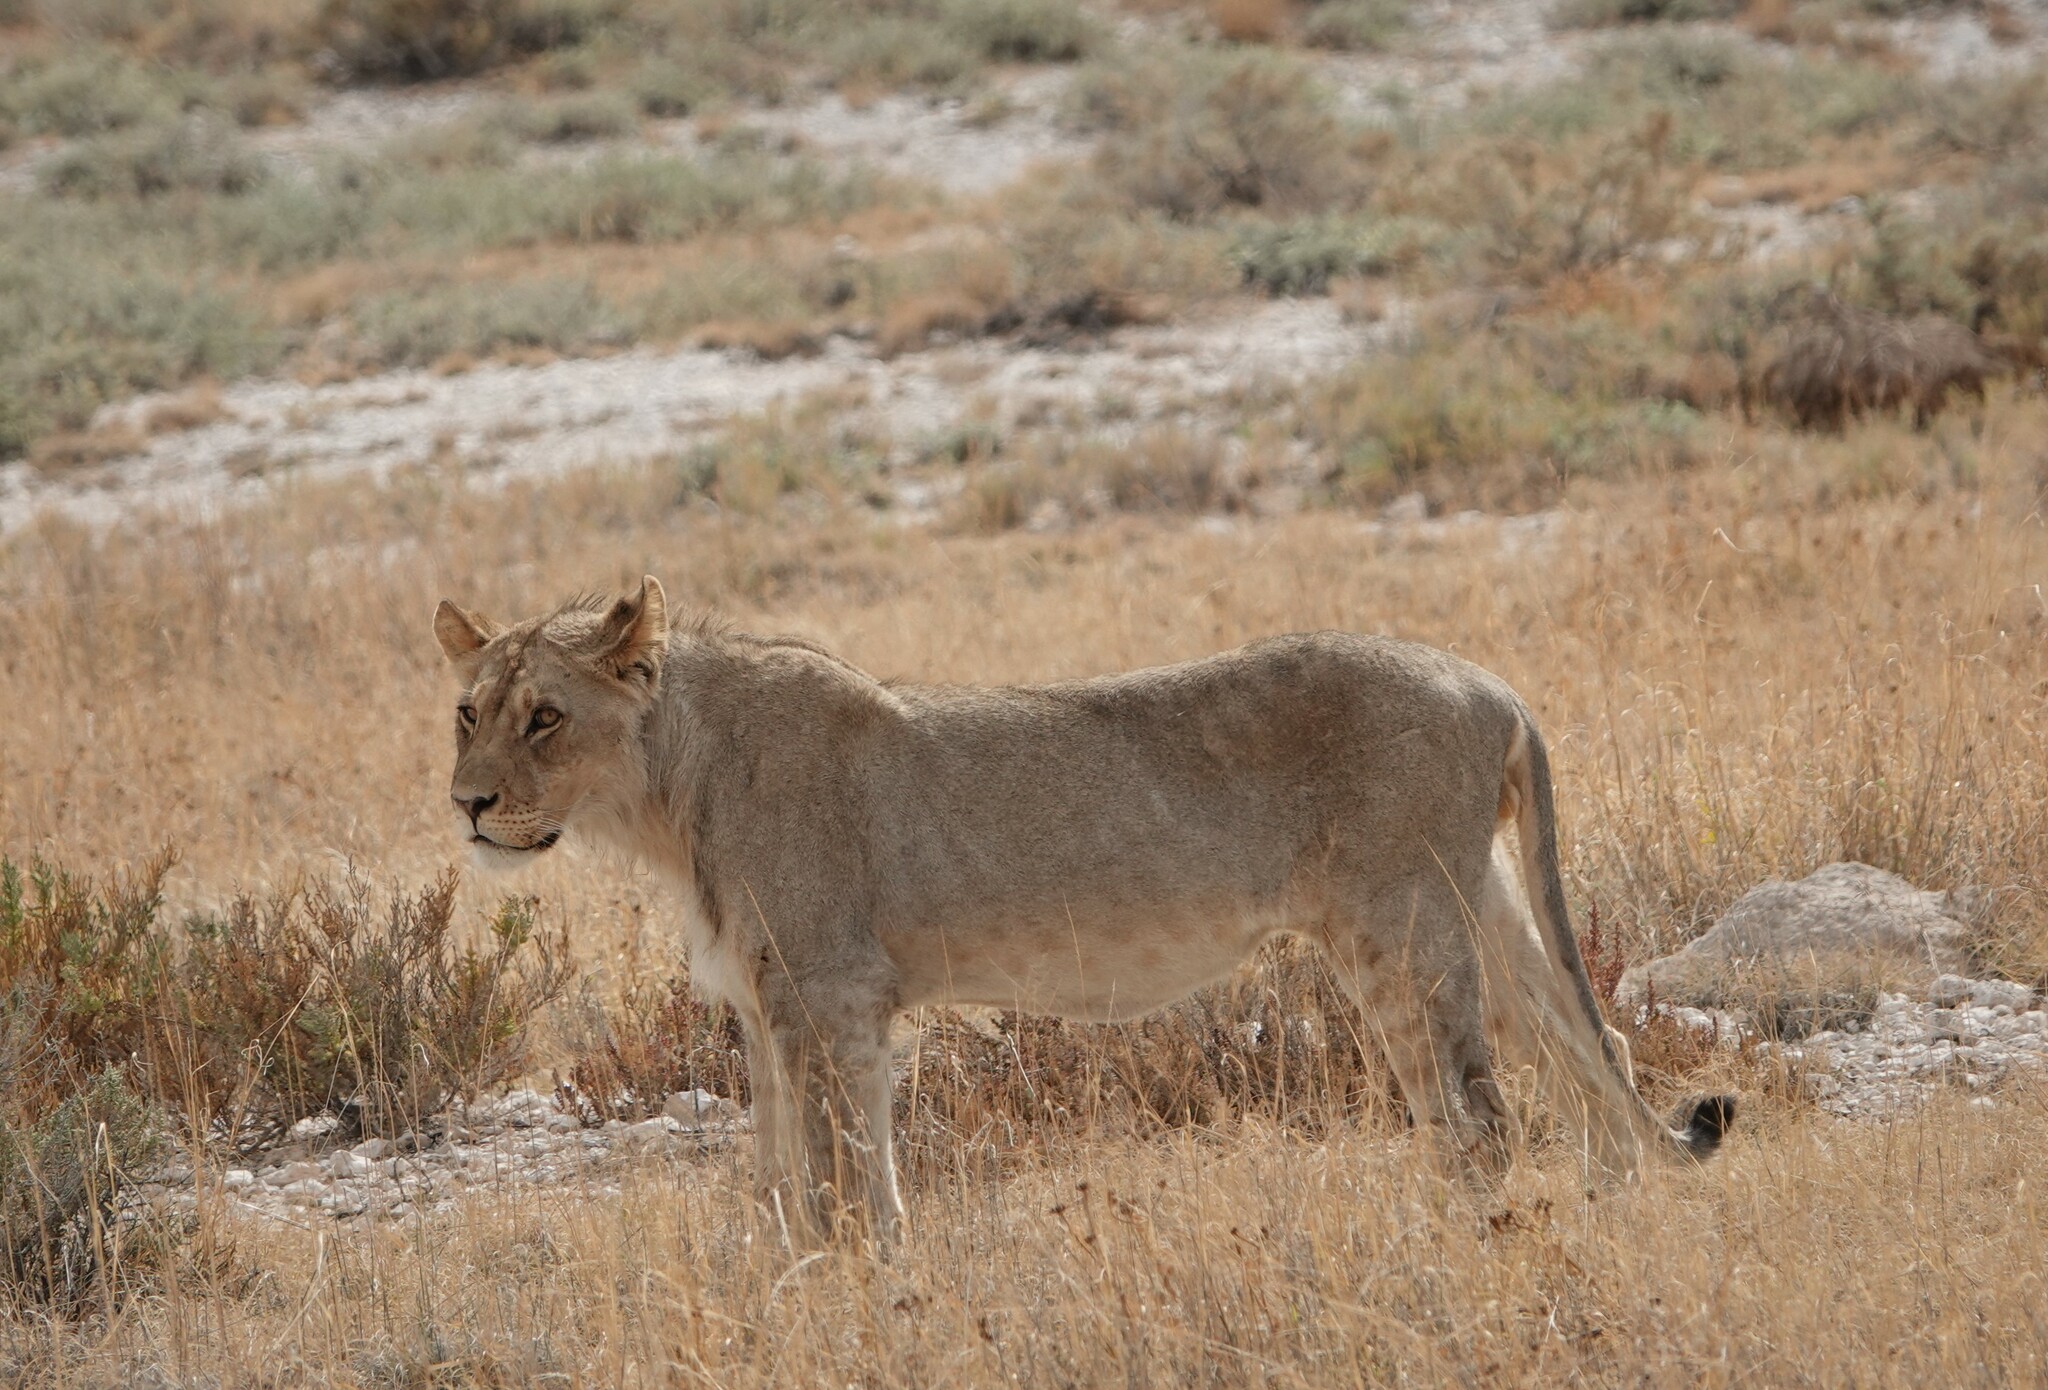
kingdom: Animalia
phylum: Chordata
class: Mammalia
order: Carnivora
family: Felidae
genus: Panthera
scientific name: Panthera leo
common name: Lion
